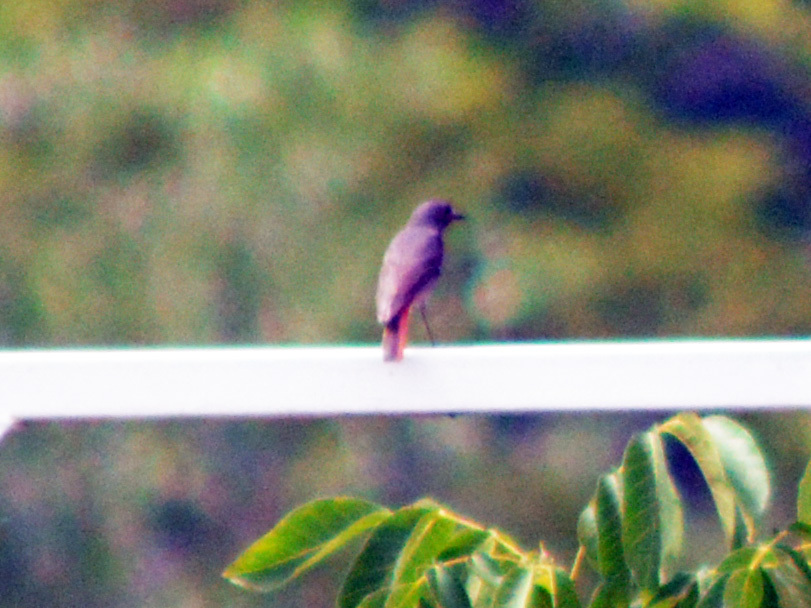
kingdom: Animalia
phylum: Chordata
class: Aves
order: Passeriformes
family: Muscicapidae
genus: Phoenicurus
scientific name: Phoenicurus ochruros
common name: Black redstart
